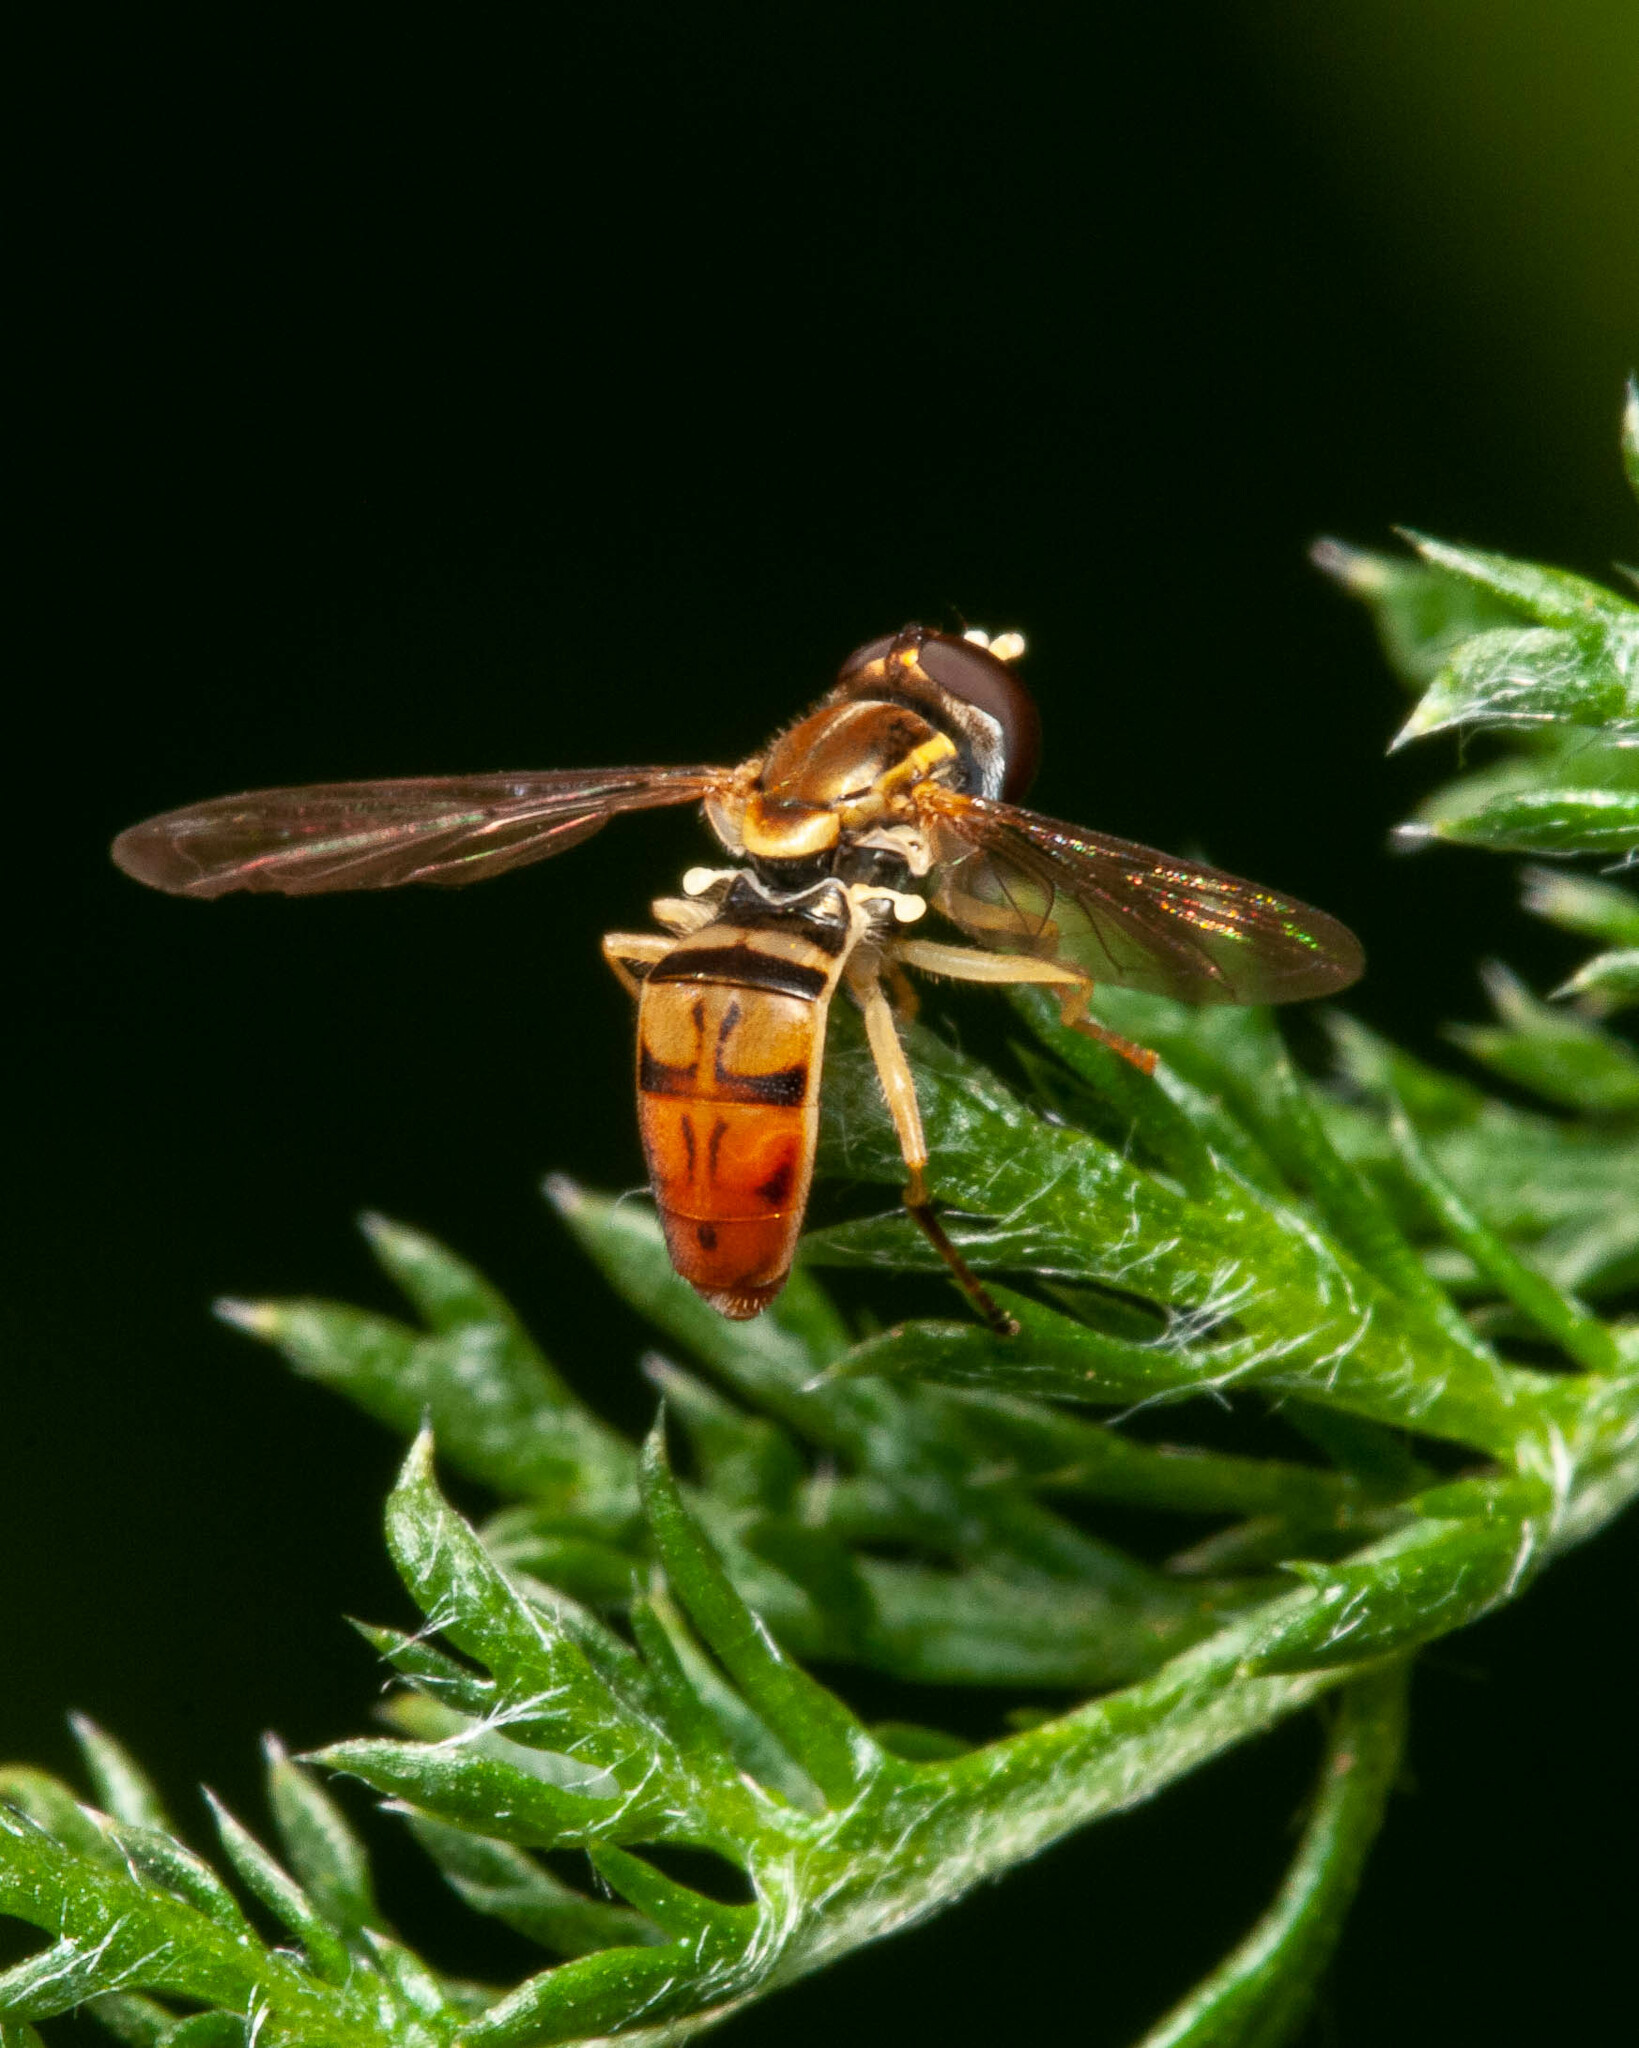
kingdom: Animalia
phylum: Arthropoda
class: Insecta
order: Diptera
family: Syrphidae
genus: Toxomerus
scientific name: Toxomerus marginatus
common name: Syrphid fly
